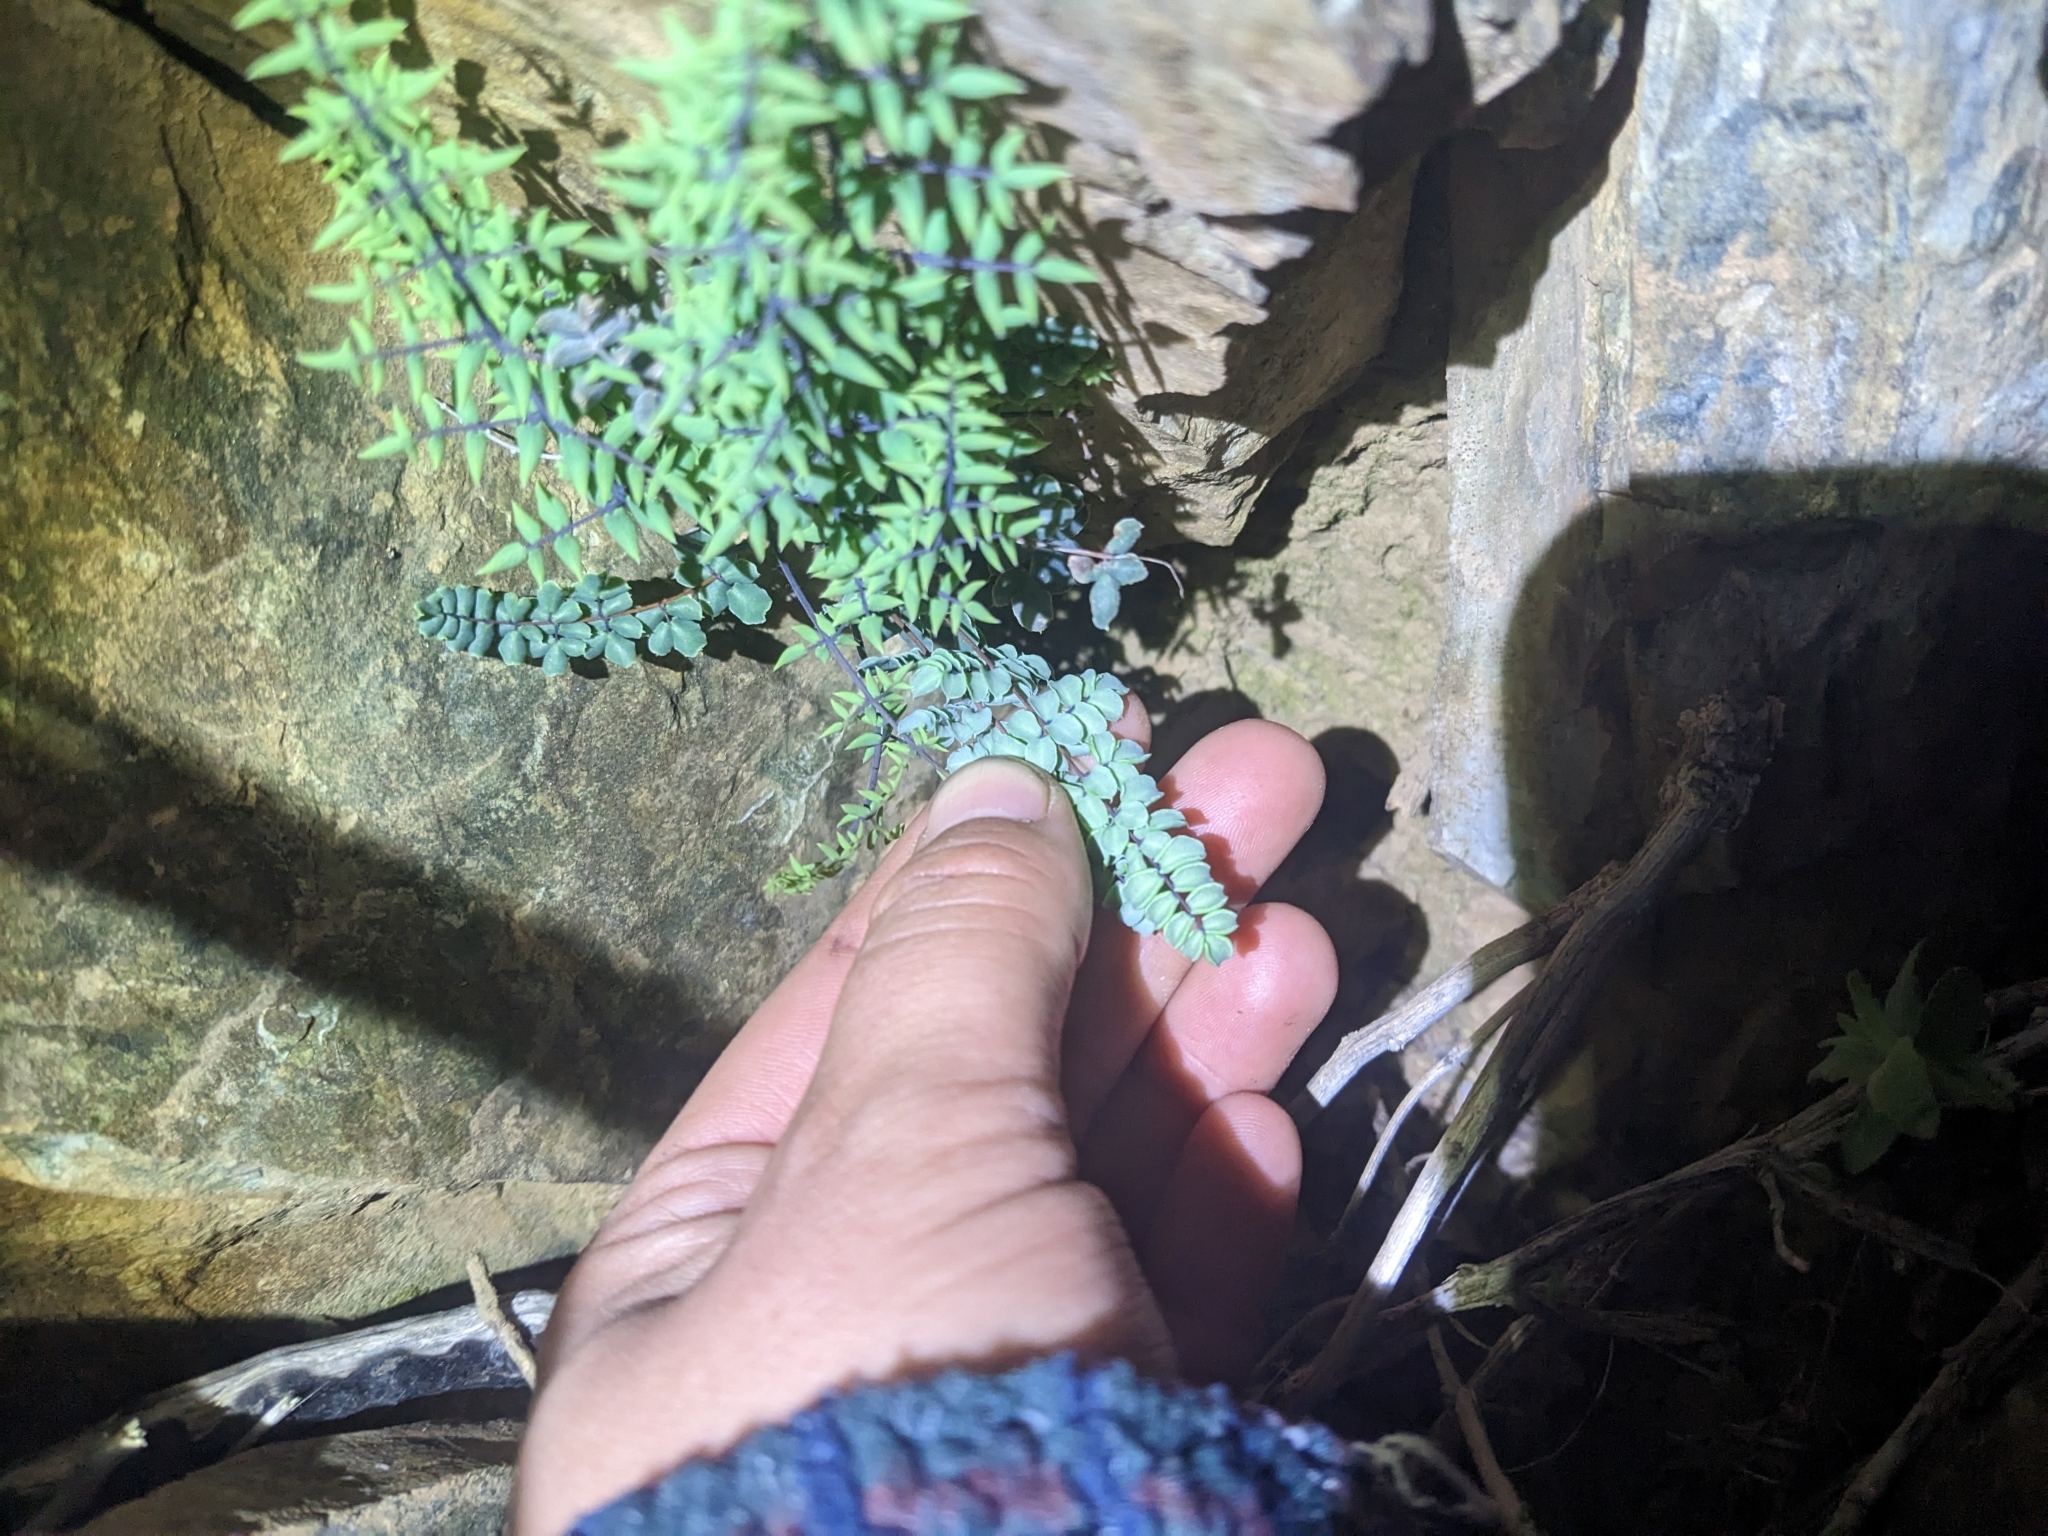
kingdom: Plantae
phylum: Tracheophyta
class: Polypodiopsida
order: Polypodiales
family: Pteridaceae
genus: Pellaea
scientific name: Pellaea truncata
